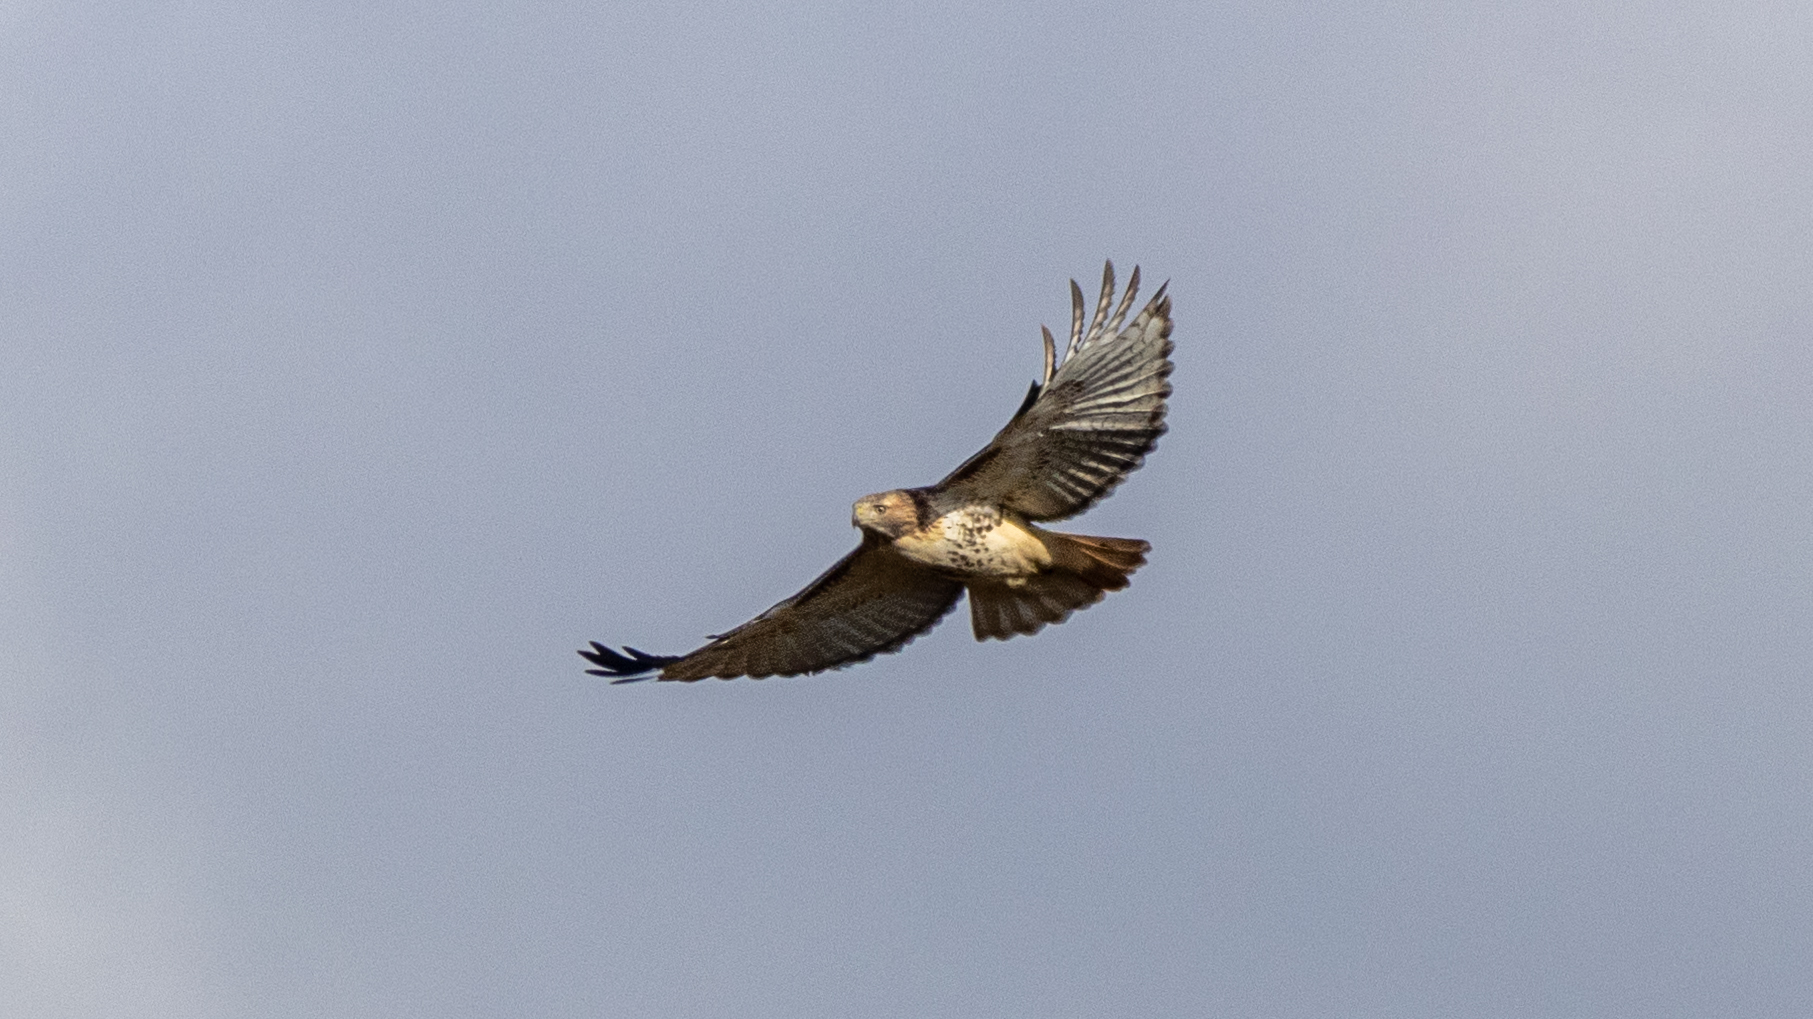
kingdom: Animalia
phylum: Chordata
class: Aves
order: Accipitriformes
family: Accipitridae
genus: Buteo
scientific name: Buteo jamaicensis
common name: Red-tailed hawk
